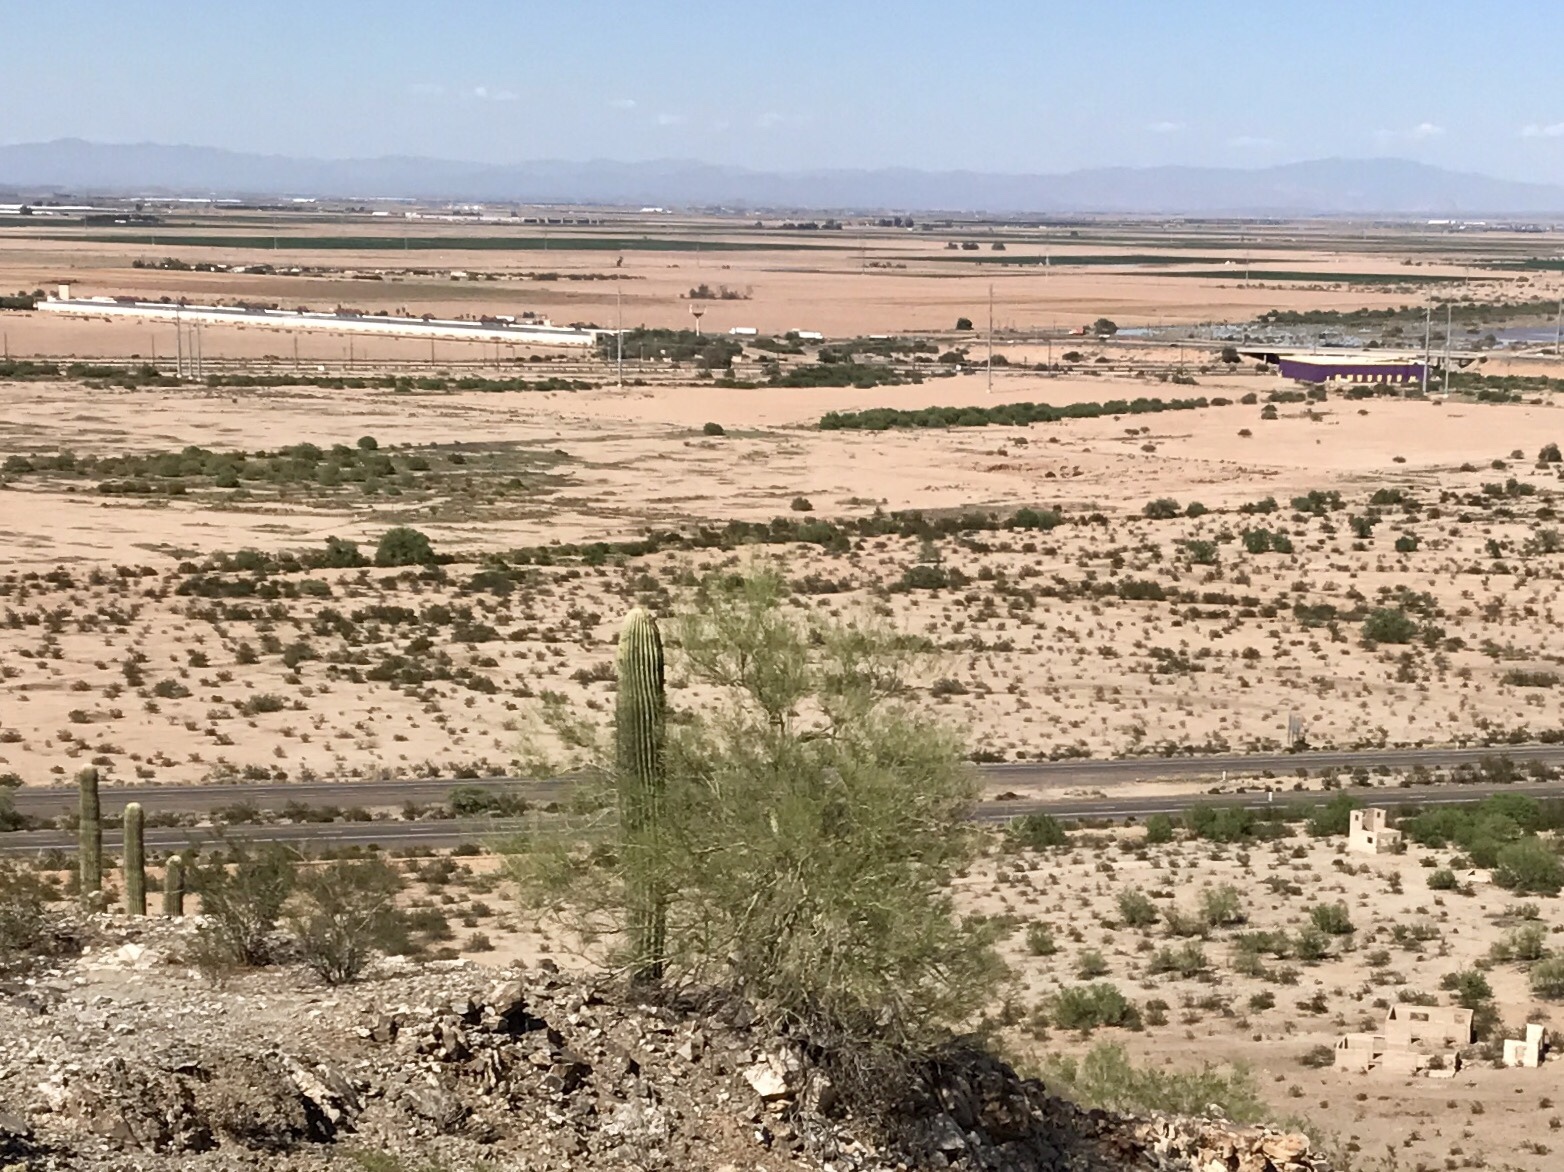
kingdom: Plantae
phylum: Tracheophyta
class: Magnoliopsida
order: Caryophyllales
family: Cactaceae
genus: Carnegiea
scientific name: Carnegiea gigantea
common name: Saguaro
